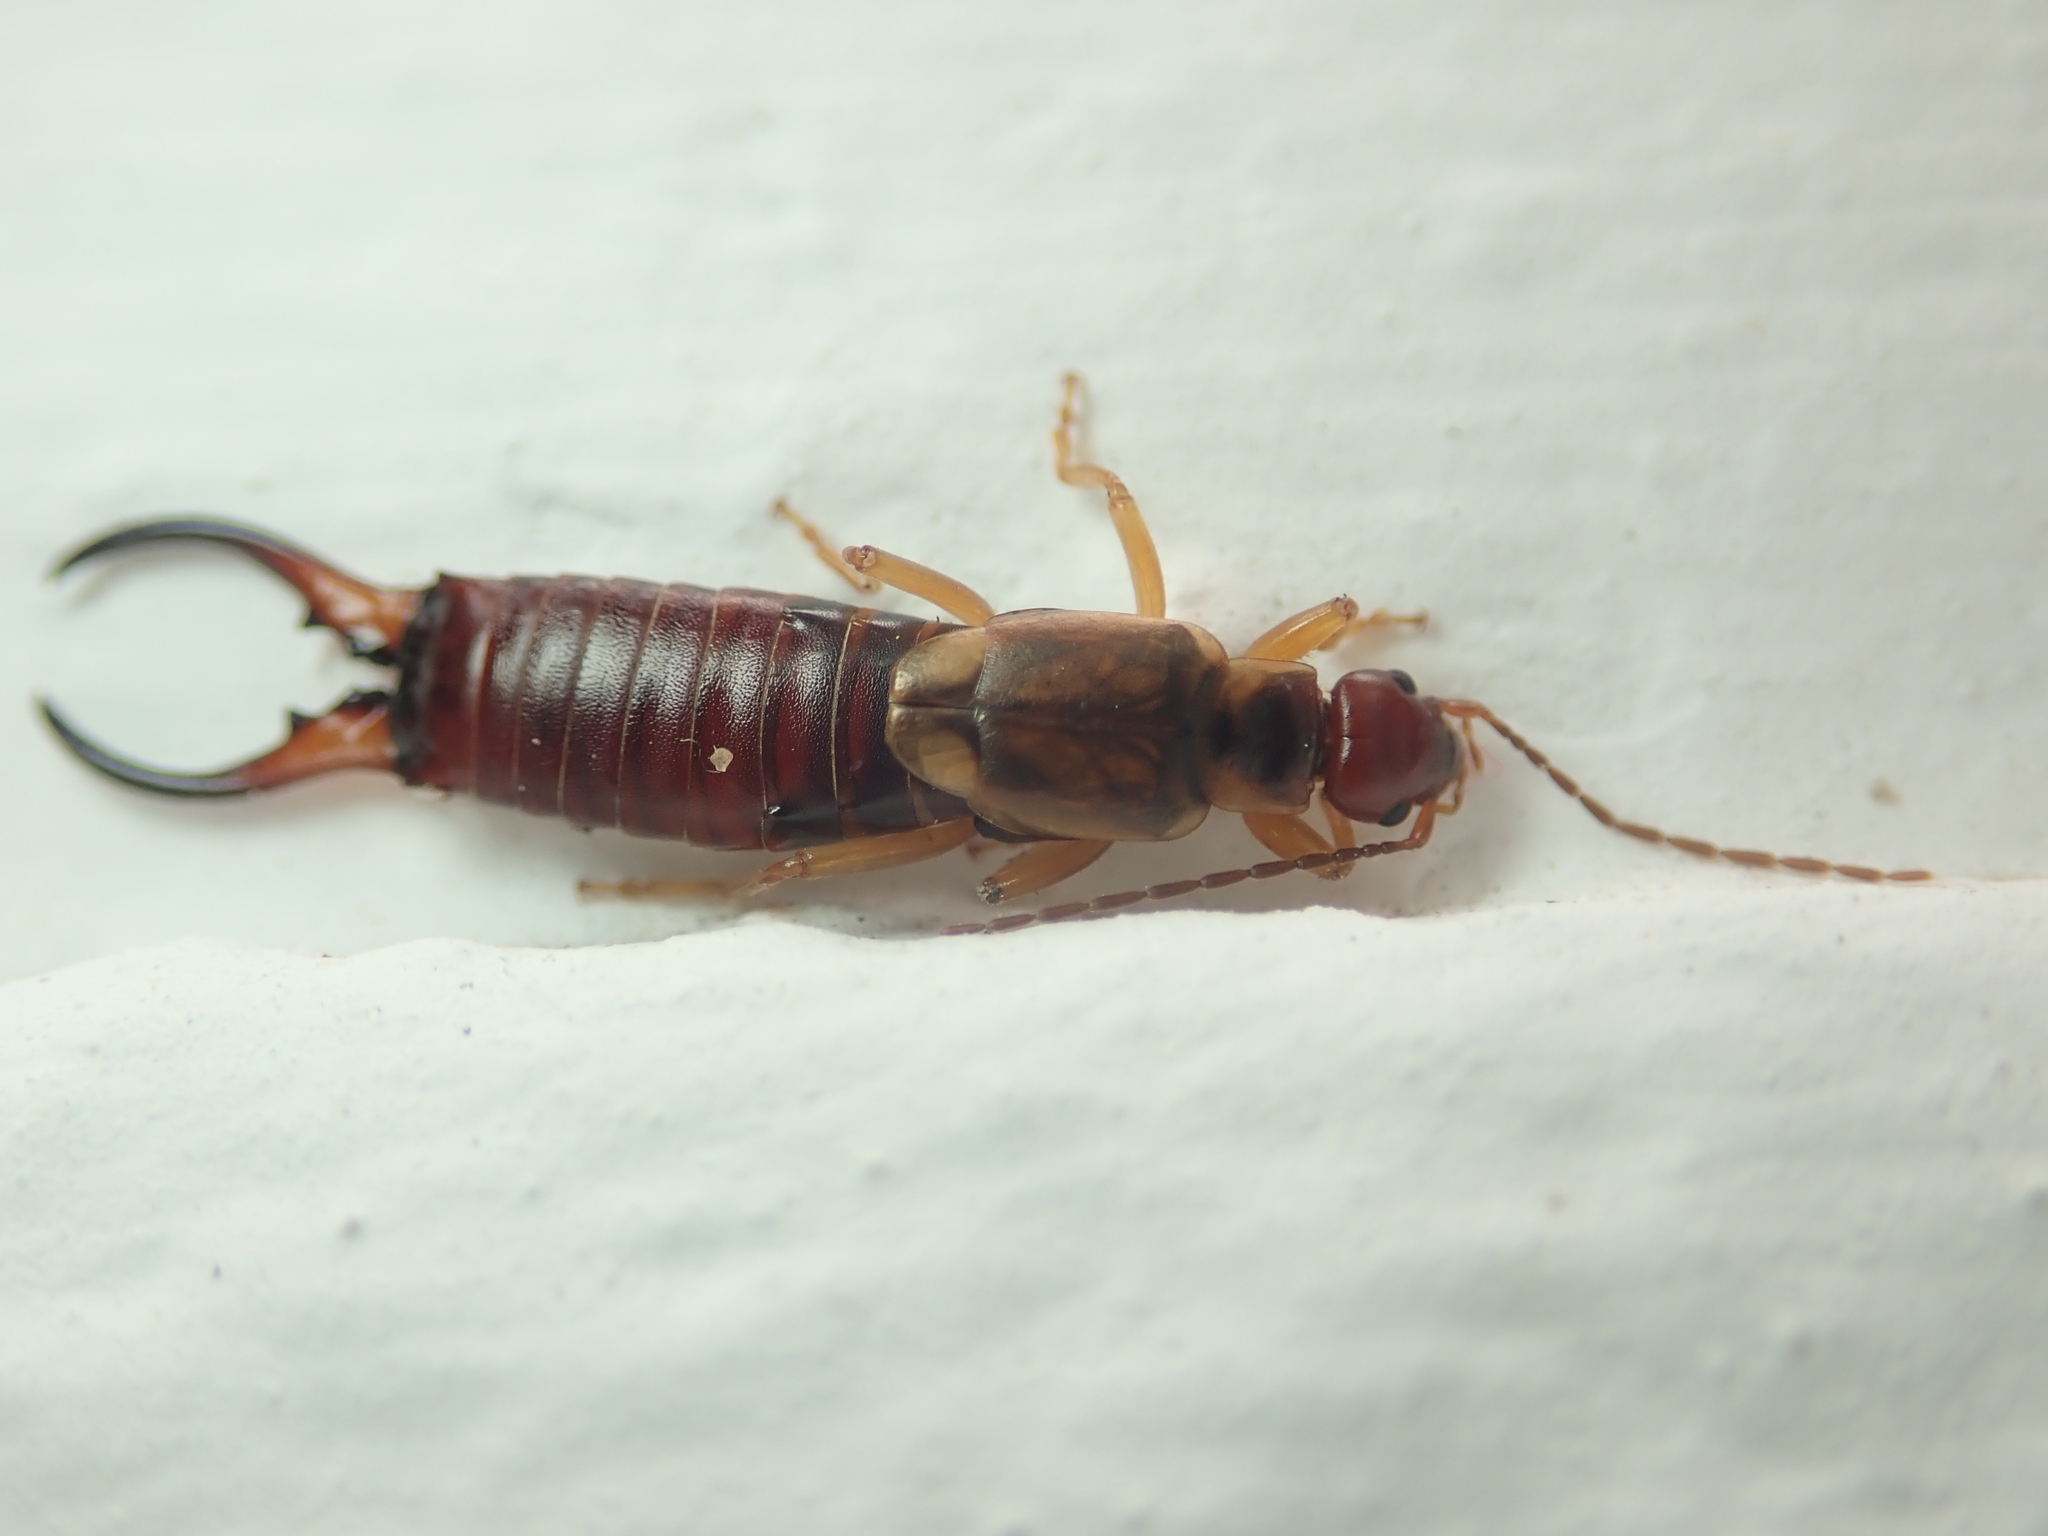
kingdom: Animalia
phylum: Arthropoda
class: Insecta
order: Dermaptera
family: Forficulidae
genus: Forficula
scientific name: Forficula
